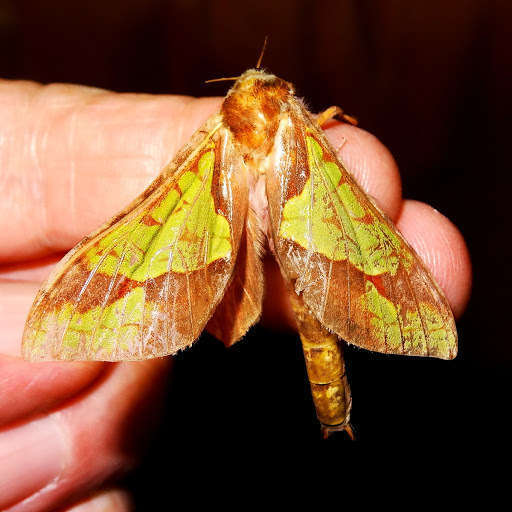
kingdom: Animalia
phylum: Arthropoda
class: Insecta
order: Lepidoptera
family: Hepialidae
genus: Aenetus
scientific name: Aenetus ligniveren
